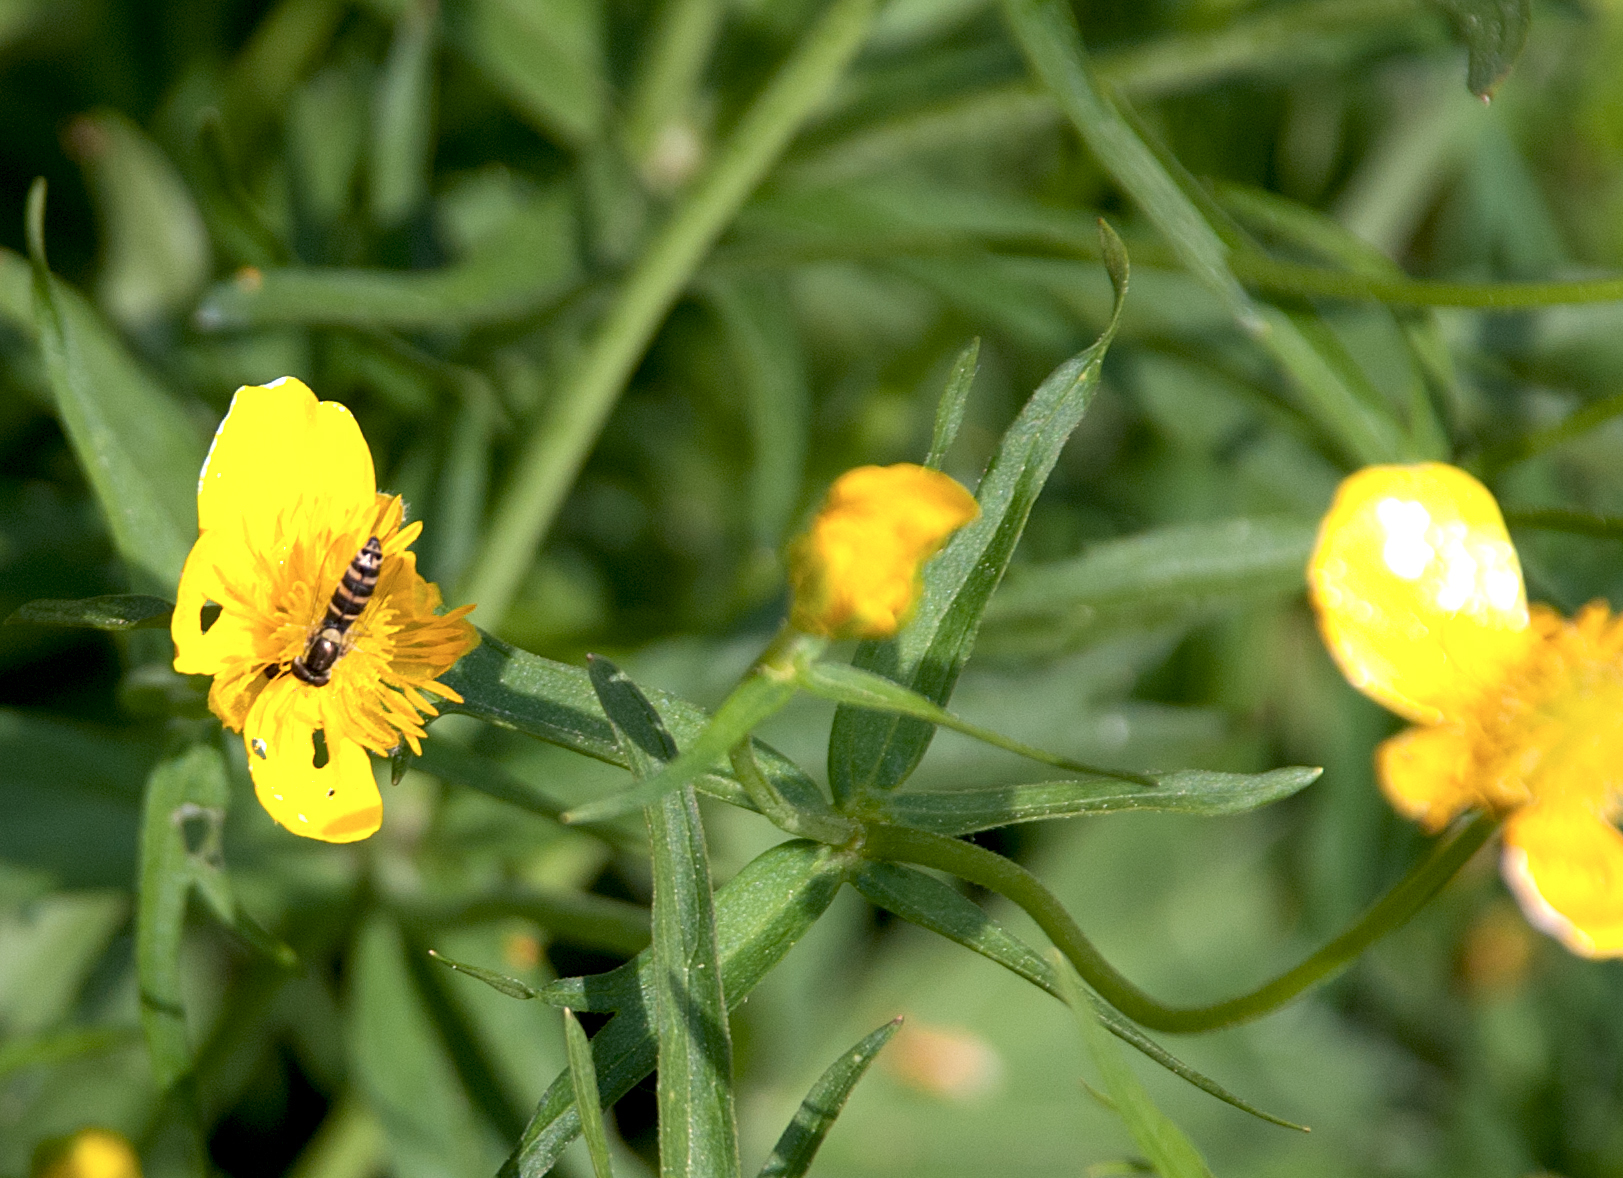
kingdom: Animalia
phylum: Arthropoda
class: Insecta
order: Diptera
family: Syrphidae
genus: Sphaerophoria
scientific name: Sphaerophoria
